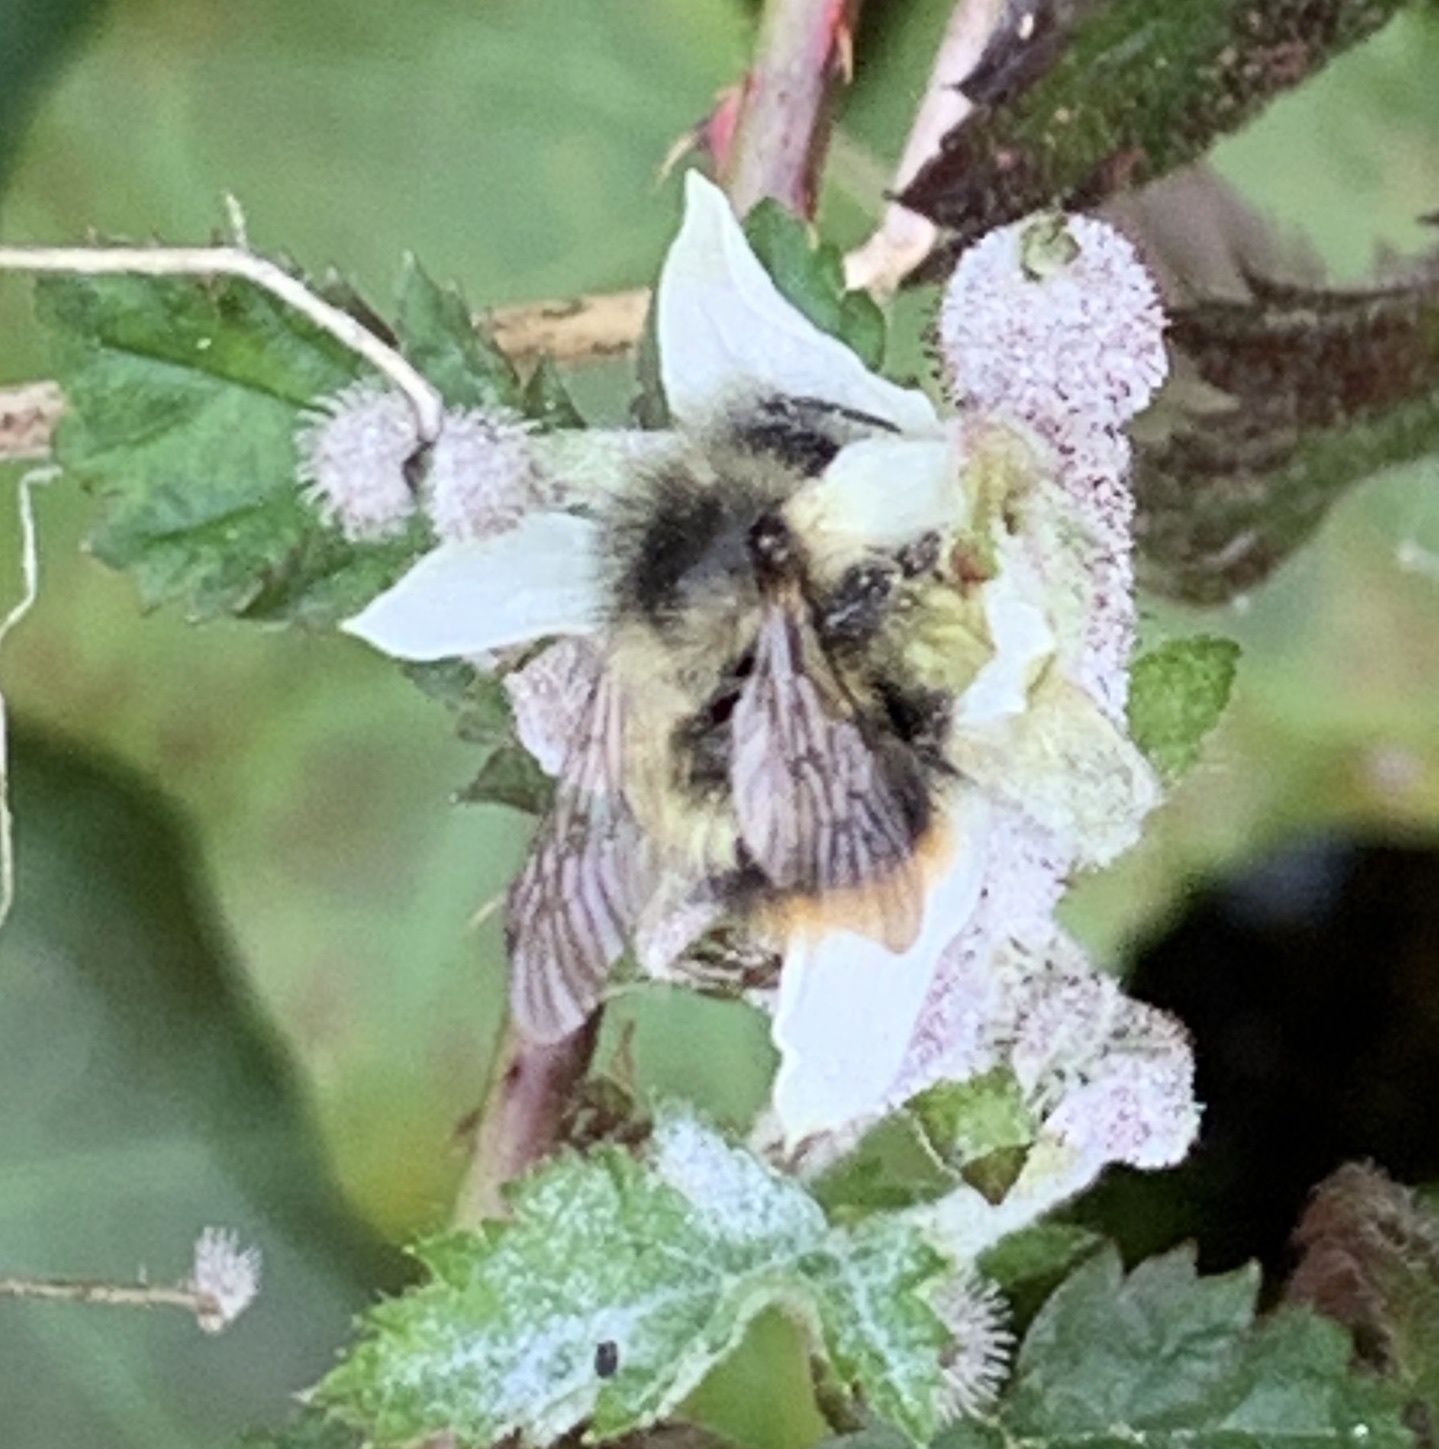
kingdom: Animalia
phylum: Arthropoda
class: Insecta
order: Hymenoptera
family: Apidae
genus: Bombus
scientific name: Bombus mixtus
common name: Fuzzy-horned bumble bee
